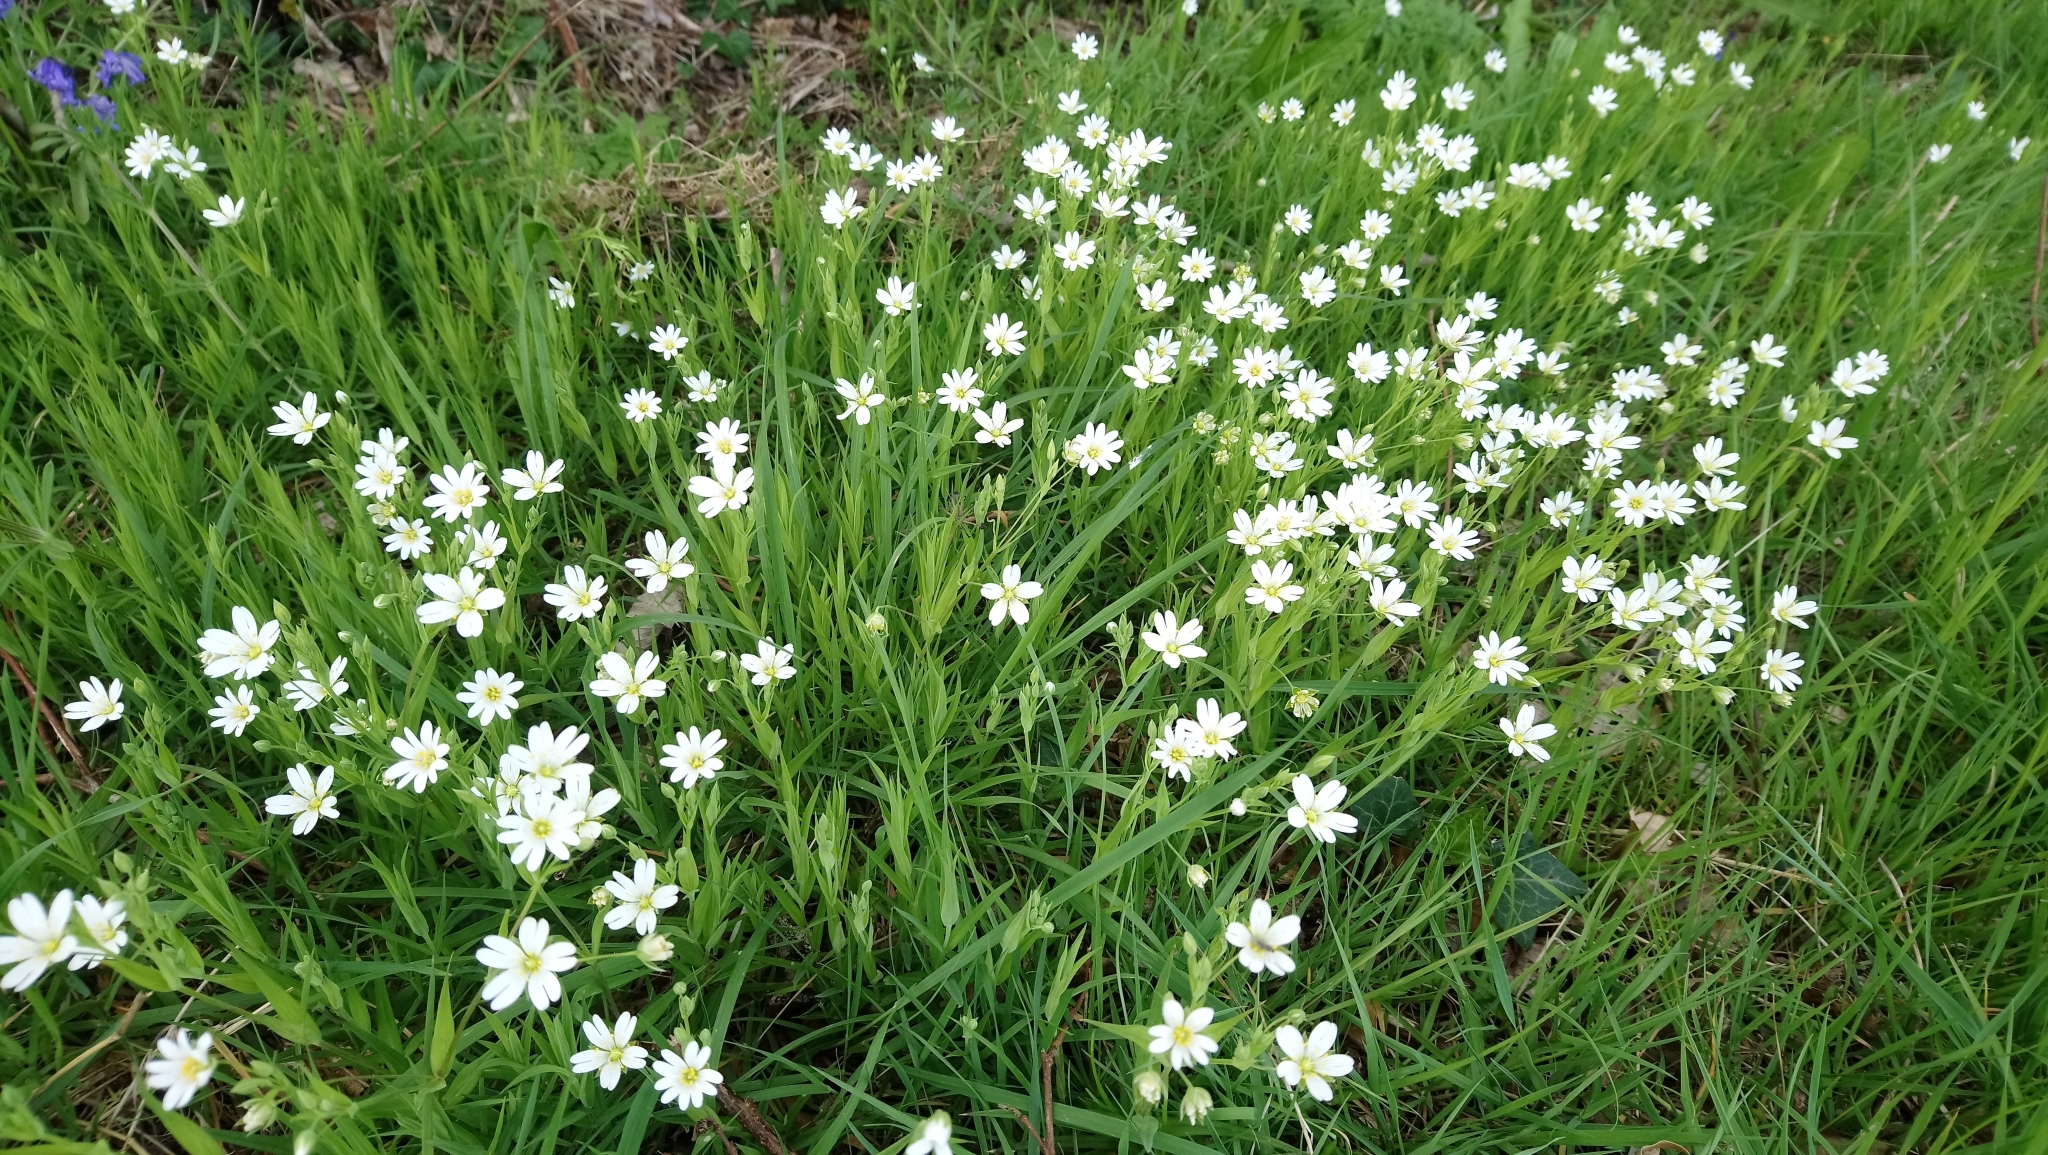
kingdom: Plantae
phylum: Tracheophyta
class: Magnoliopsida
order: Caryophyllales
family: Caryophyllaceae
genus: Rabelera
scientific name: Rabelera holostea
